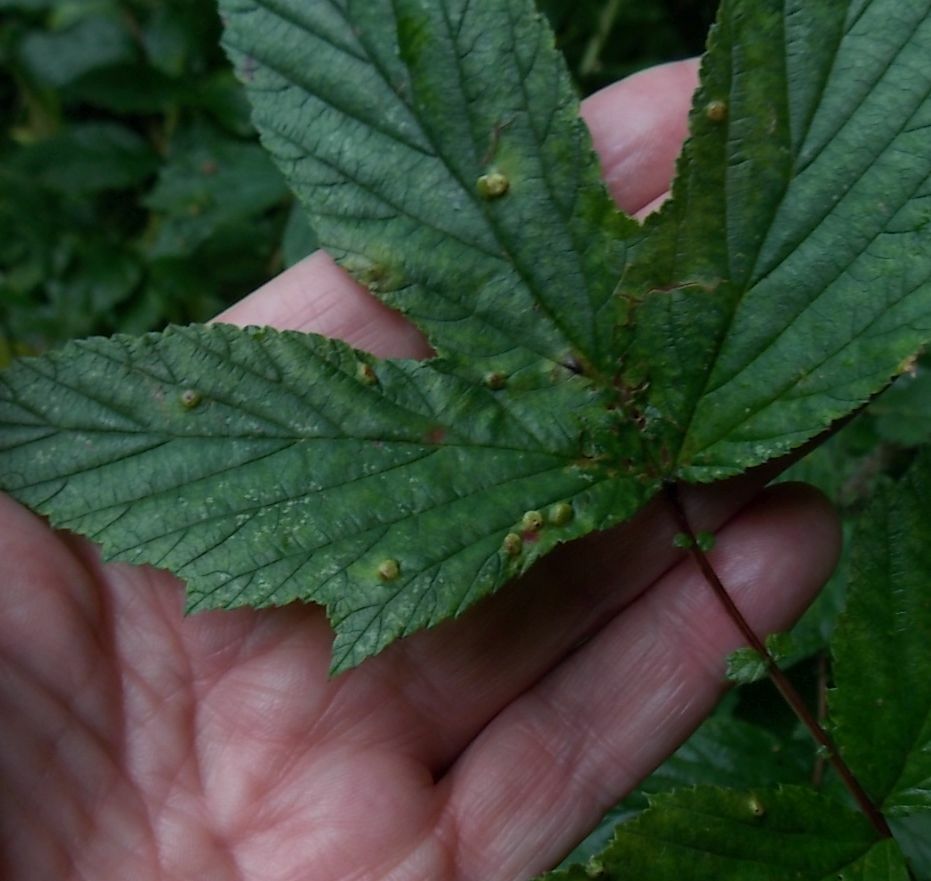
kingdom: Animalia
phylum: Arthropoda
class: Insecta
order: Diptera
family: Cecidomyiidae
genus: Dasineura
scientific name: Dasineura ulmaria
